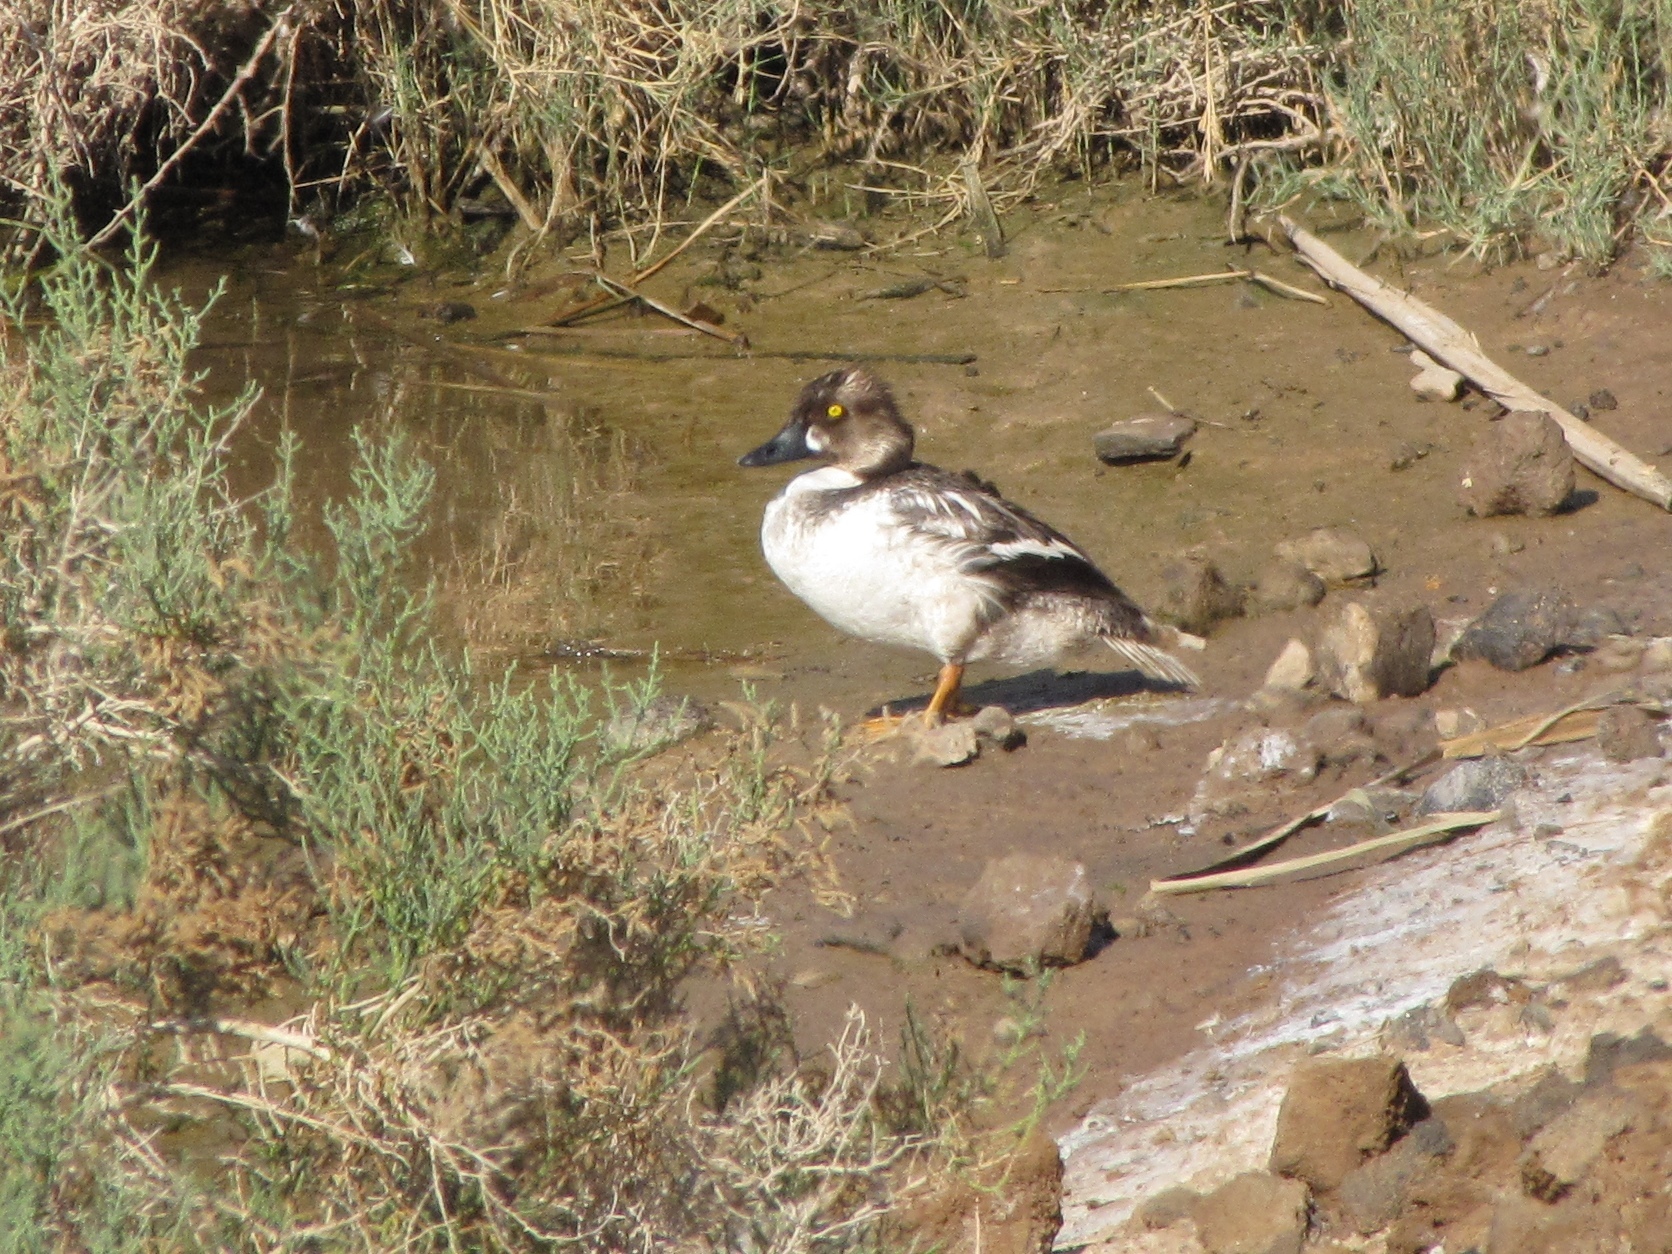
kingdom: Animalia
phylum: Chordata
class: Aves
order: Anseriformes
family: Anatidae
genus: Bucephala
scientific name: Bucephala clangula
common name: Common goldeneye
